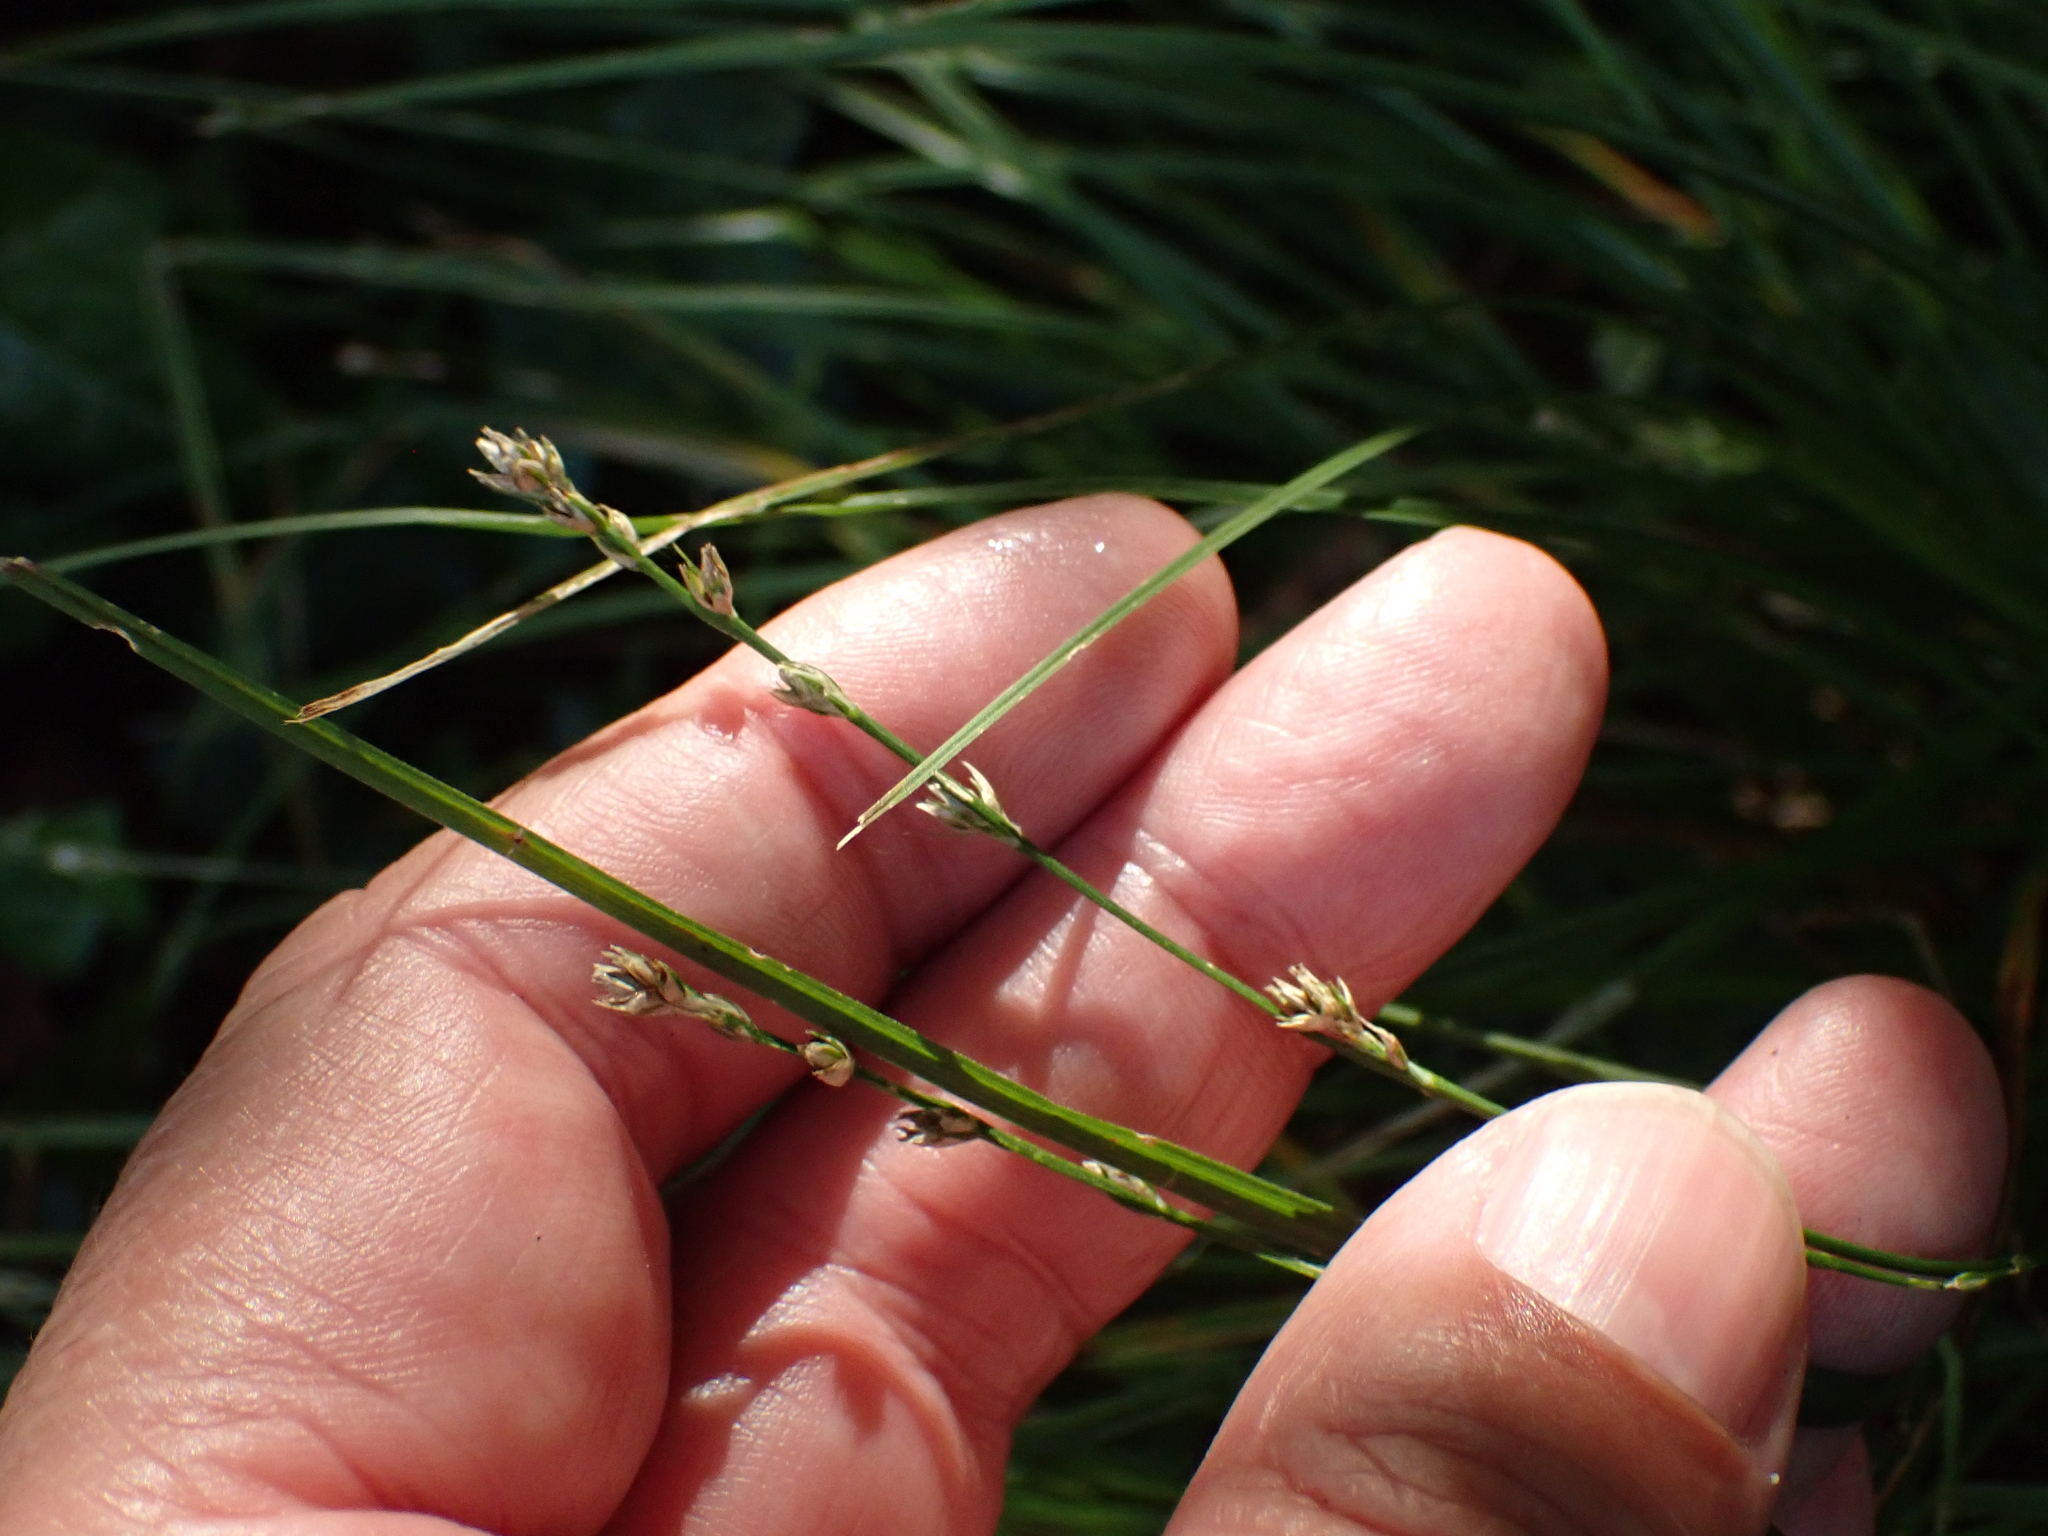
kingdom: Plantae
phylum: Tracheophyta
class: Liliopsida
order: Poales
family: Cyperaceae
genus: Carex
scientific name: Carex divulsa
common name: Grassland sedge
